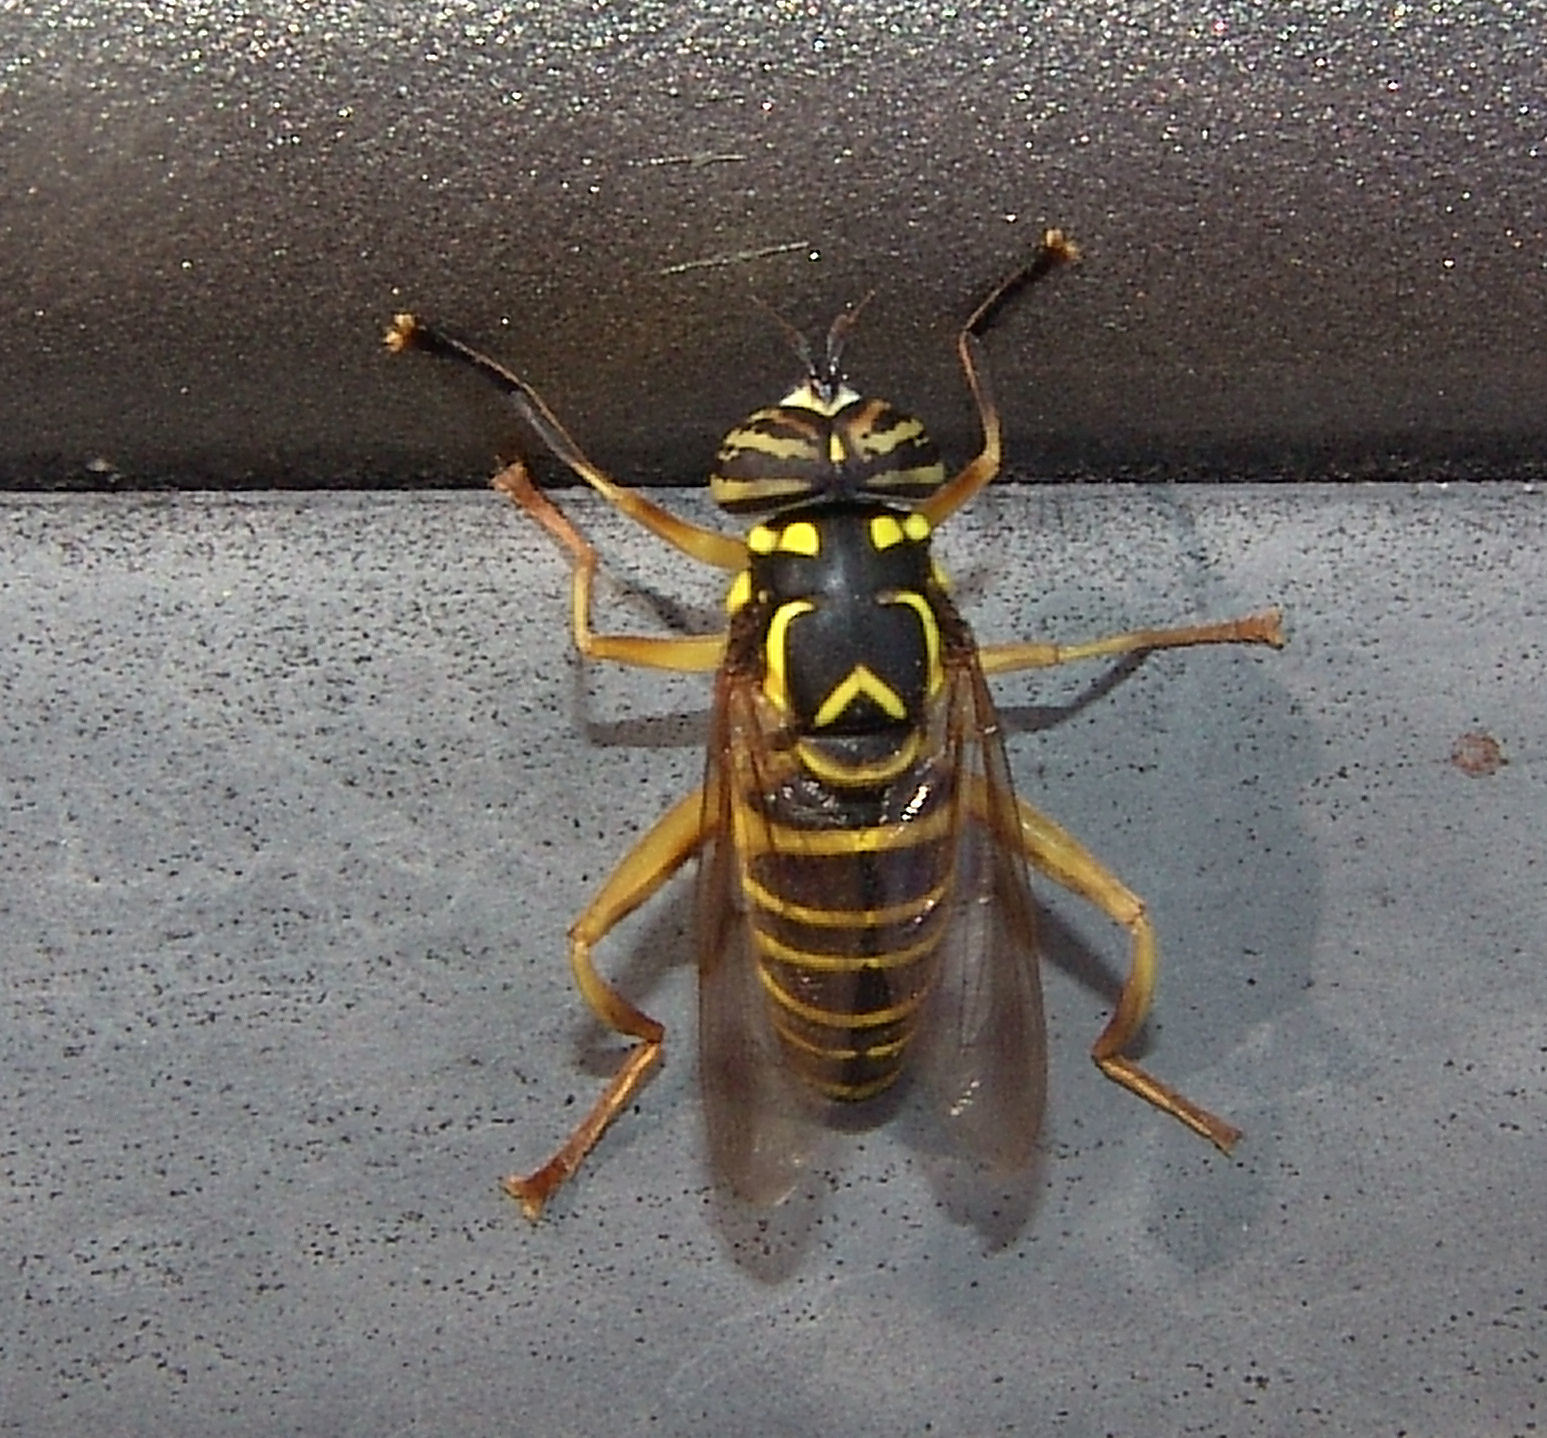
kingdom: Animalia
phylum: Arthropoda
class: Insecta
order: Diptera
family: Syrphidae
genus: Spilomyia
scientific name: Spilomyia longicornis
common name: Eastern hornet fly
